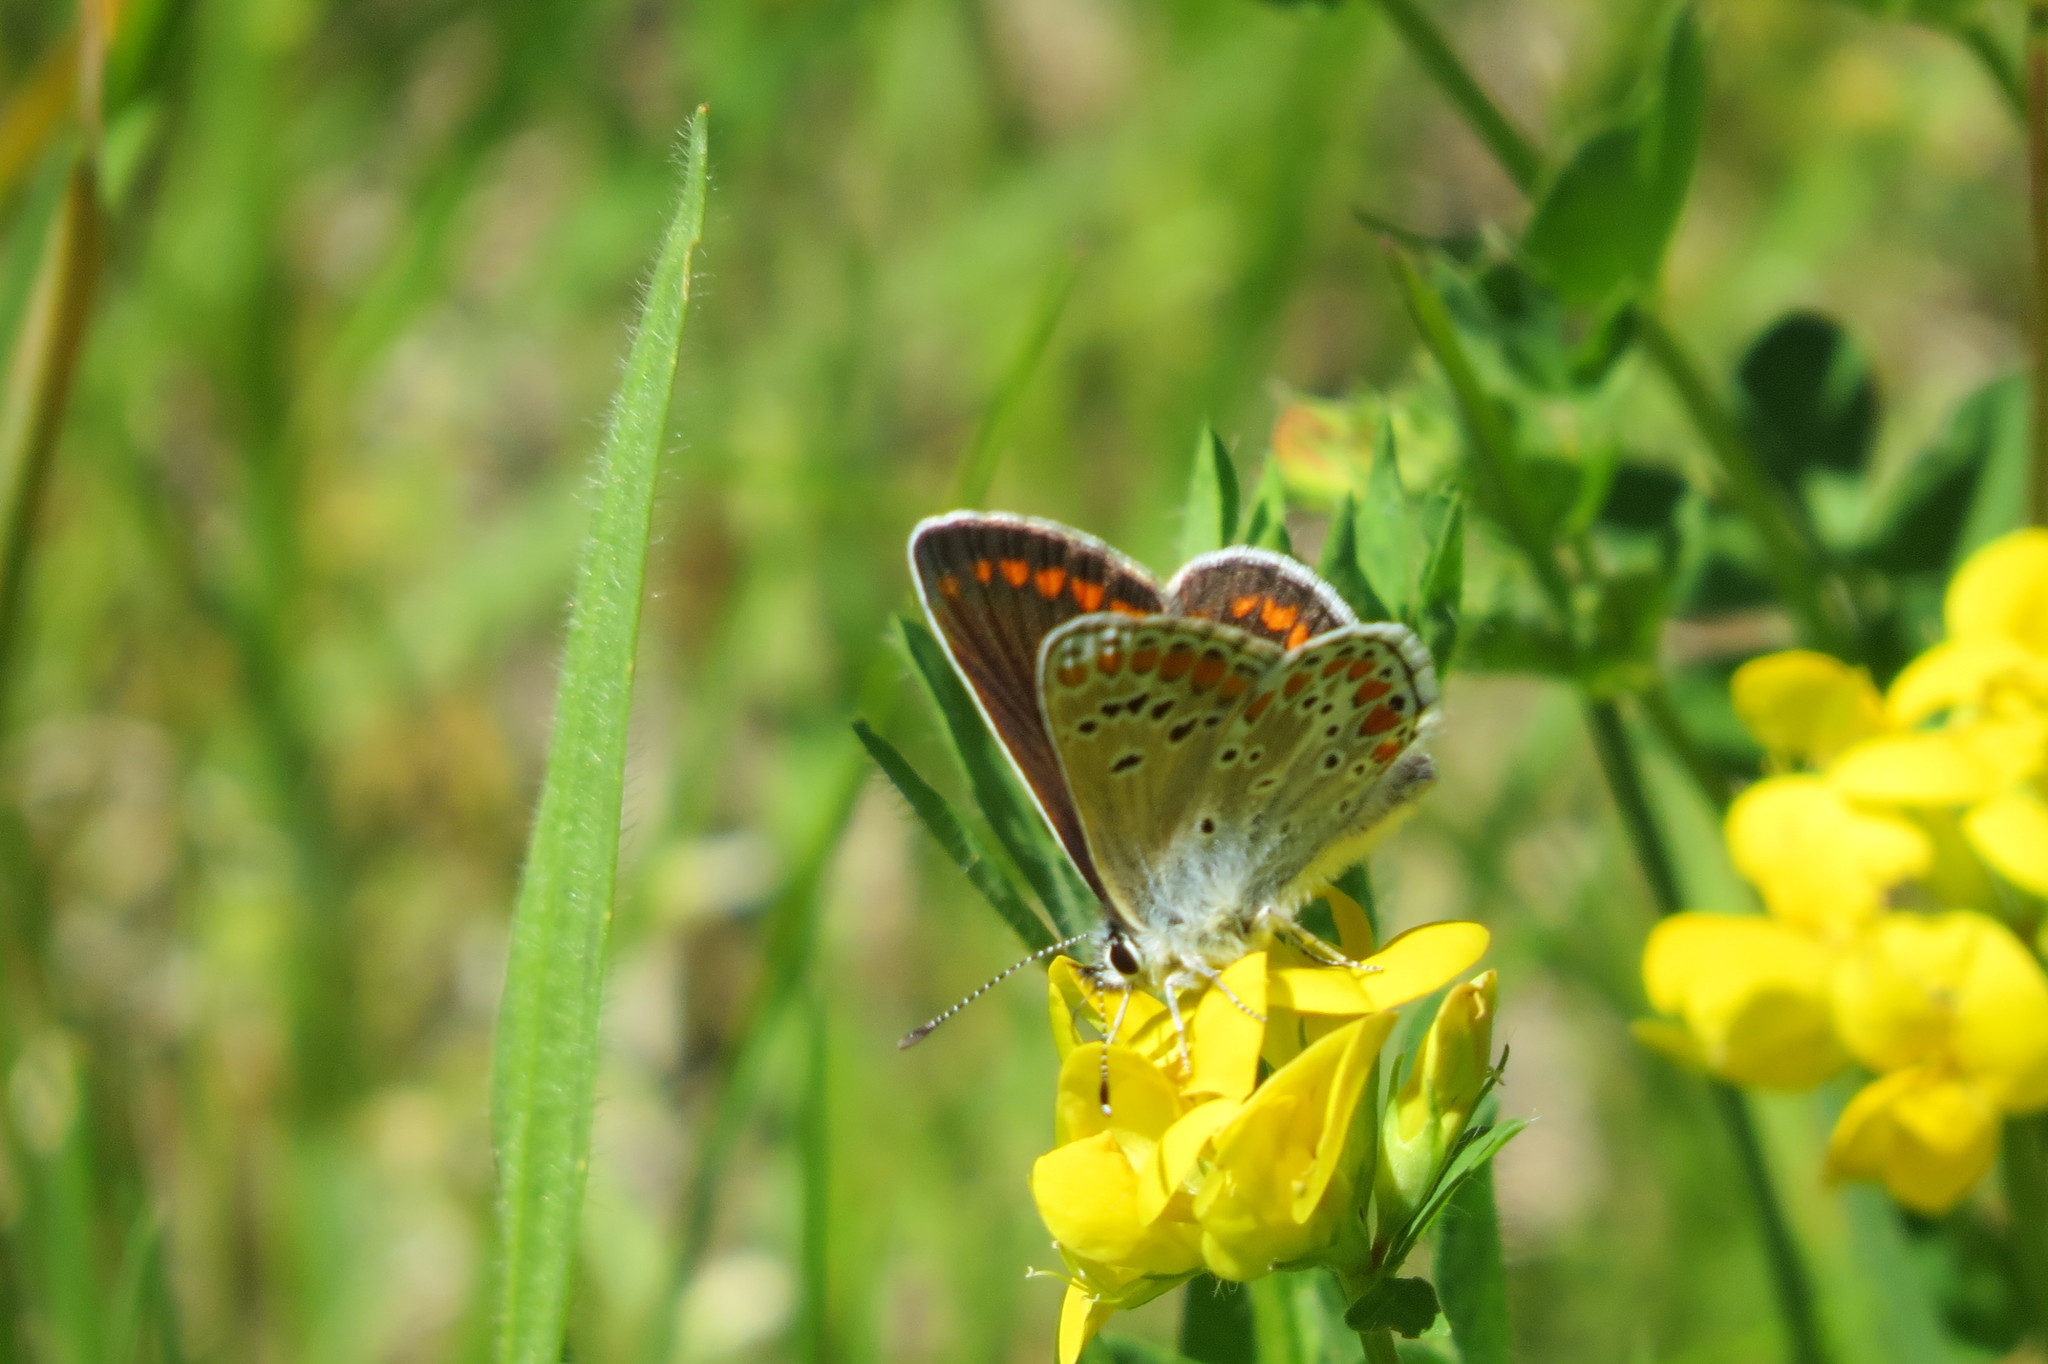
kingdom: Animalia
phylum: Arthropoda
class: Insecta
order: Lepidoptera
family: Lycaenidae
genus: Aricia
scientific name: Aricia agestis
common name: Brown argus
